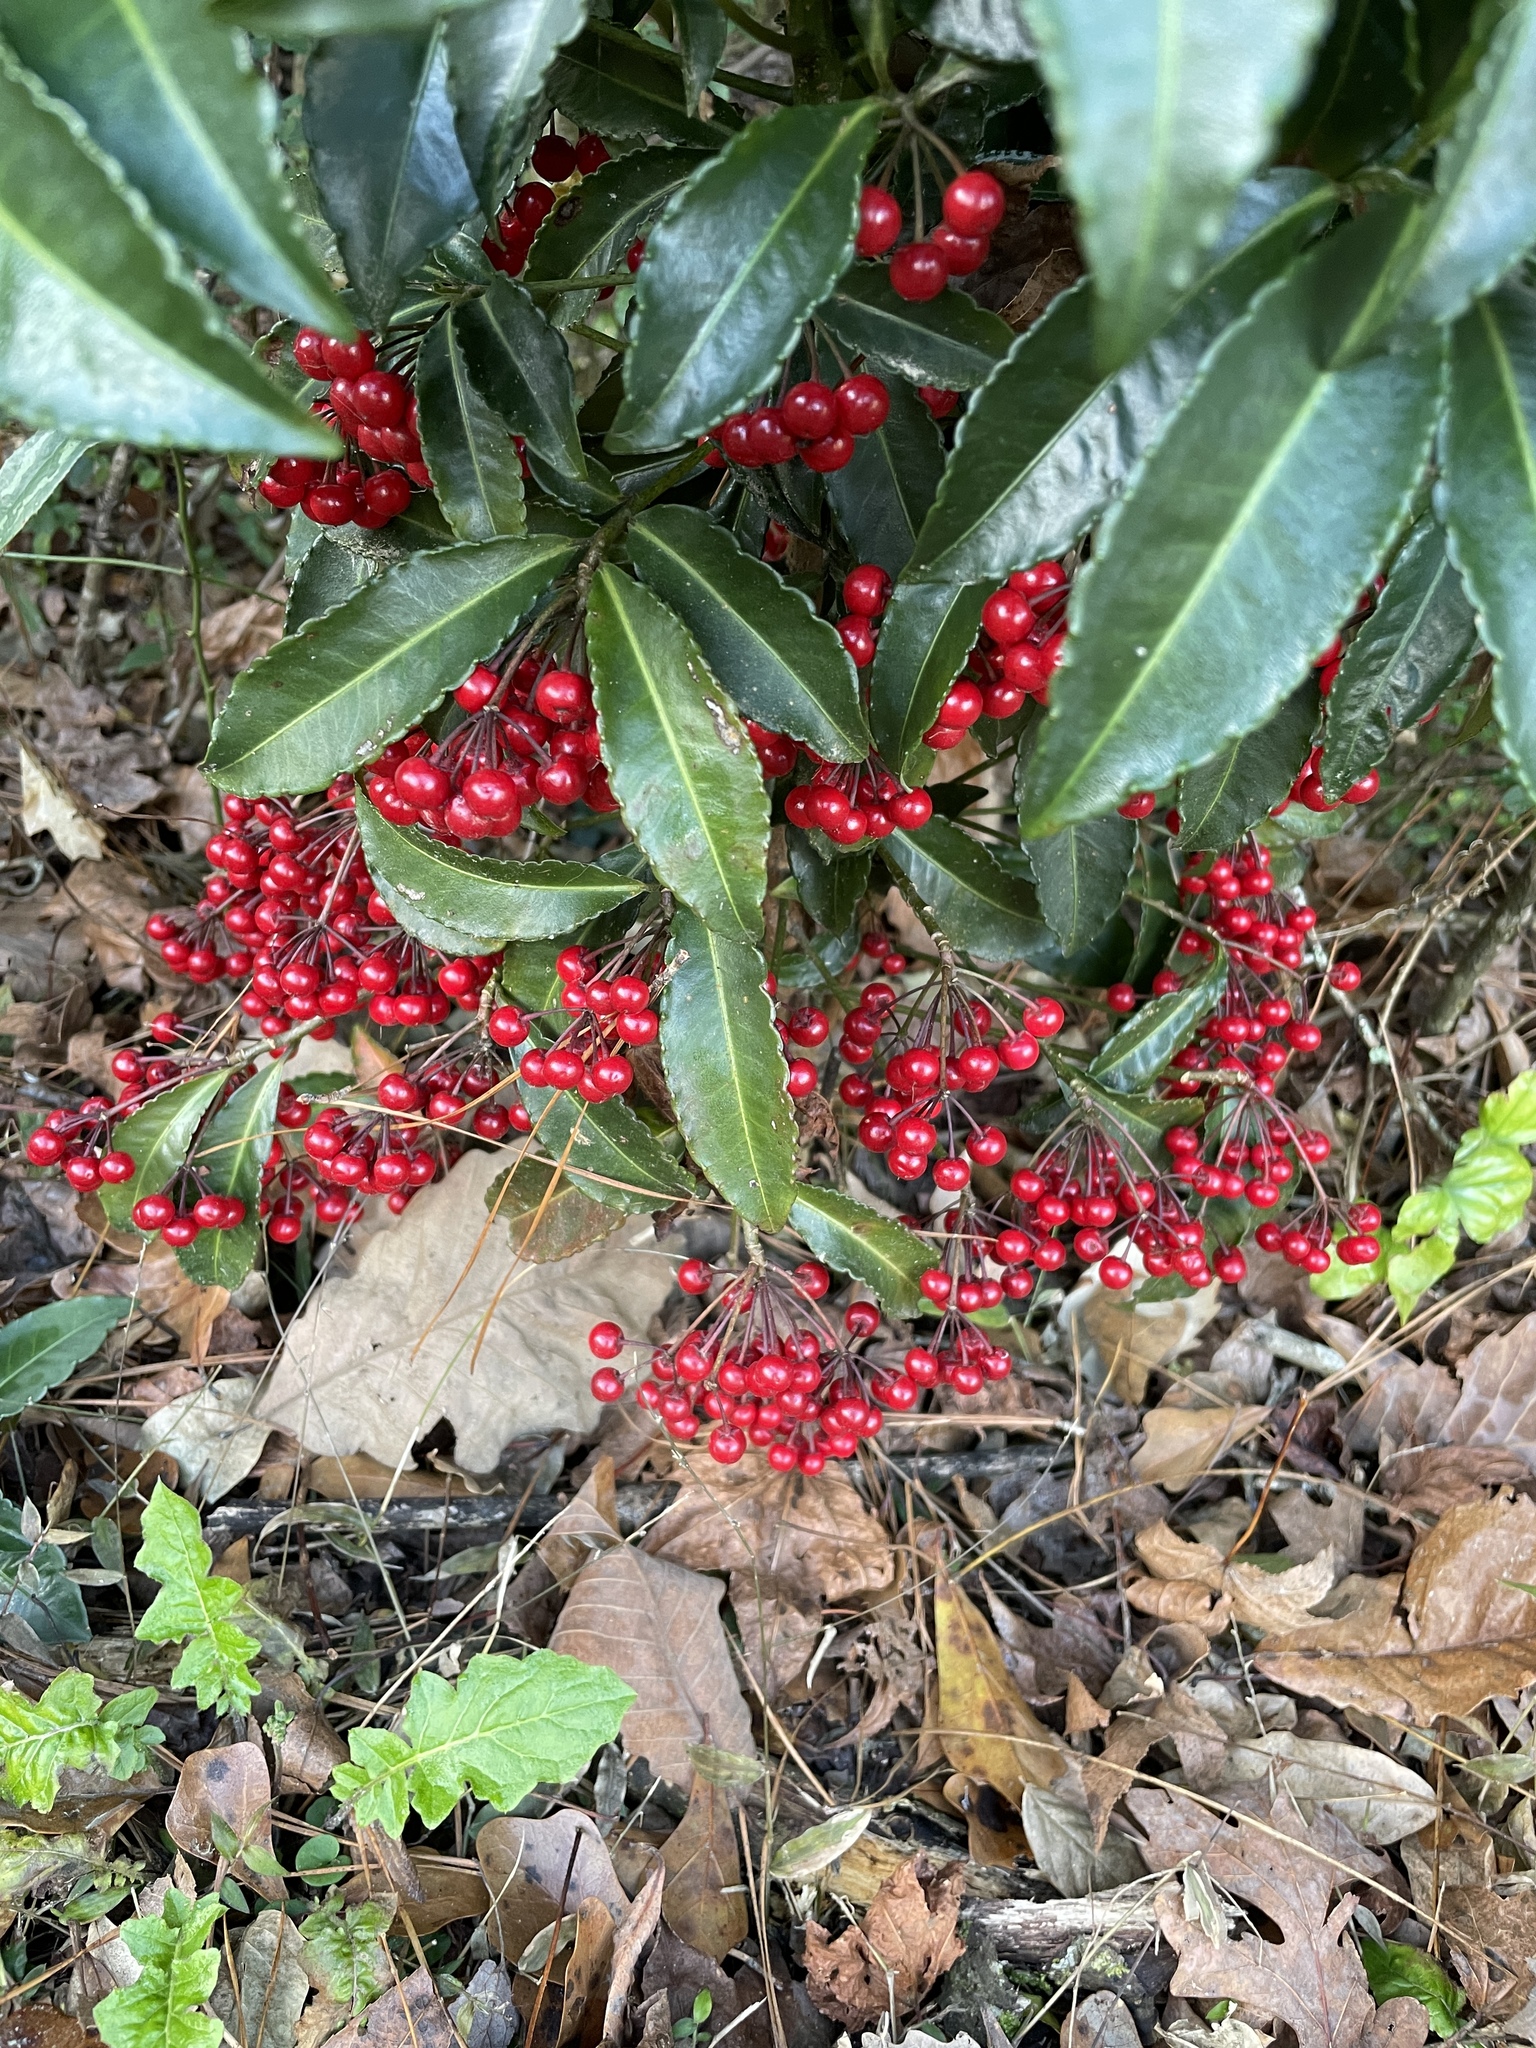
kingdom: Plantae
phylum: Tracheophyta
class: Magnoliopsida
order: Ericales
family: Primulaceae
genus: Ardisia
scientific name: Ardisia crenata
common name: Hen's eyes
